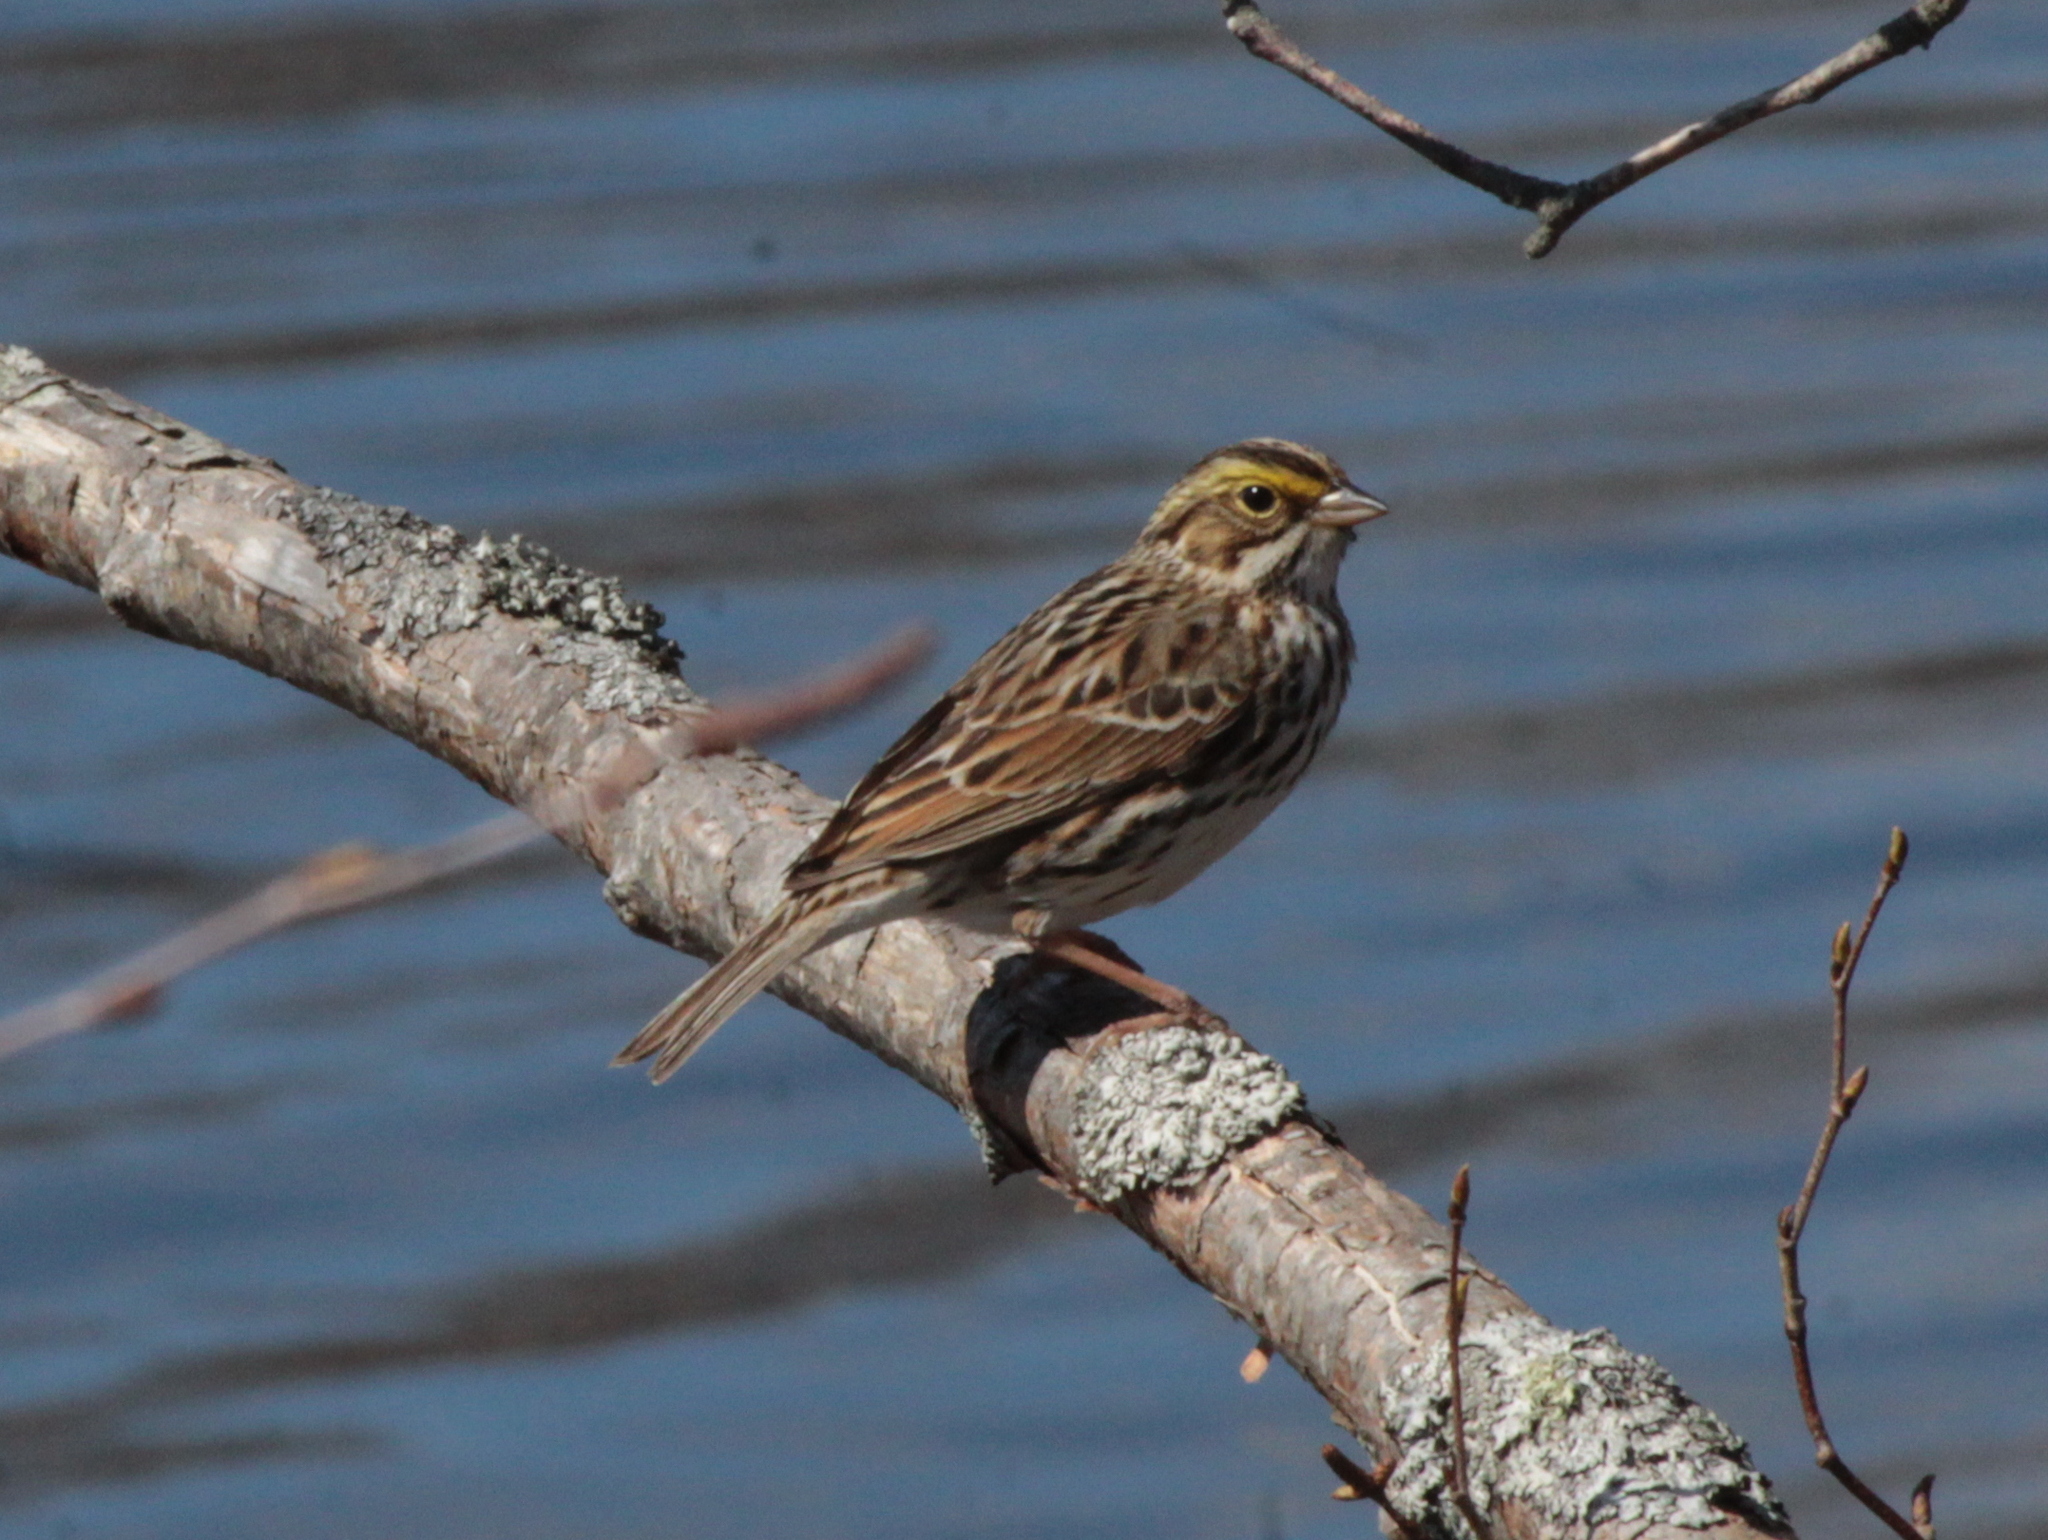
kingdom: Animalia
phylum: Chordata
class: Aves
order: Passeriformes
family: Passerellidae
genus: Passerculus
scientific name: Passerculus sandwichensis
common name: Savannah sparrow
